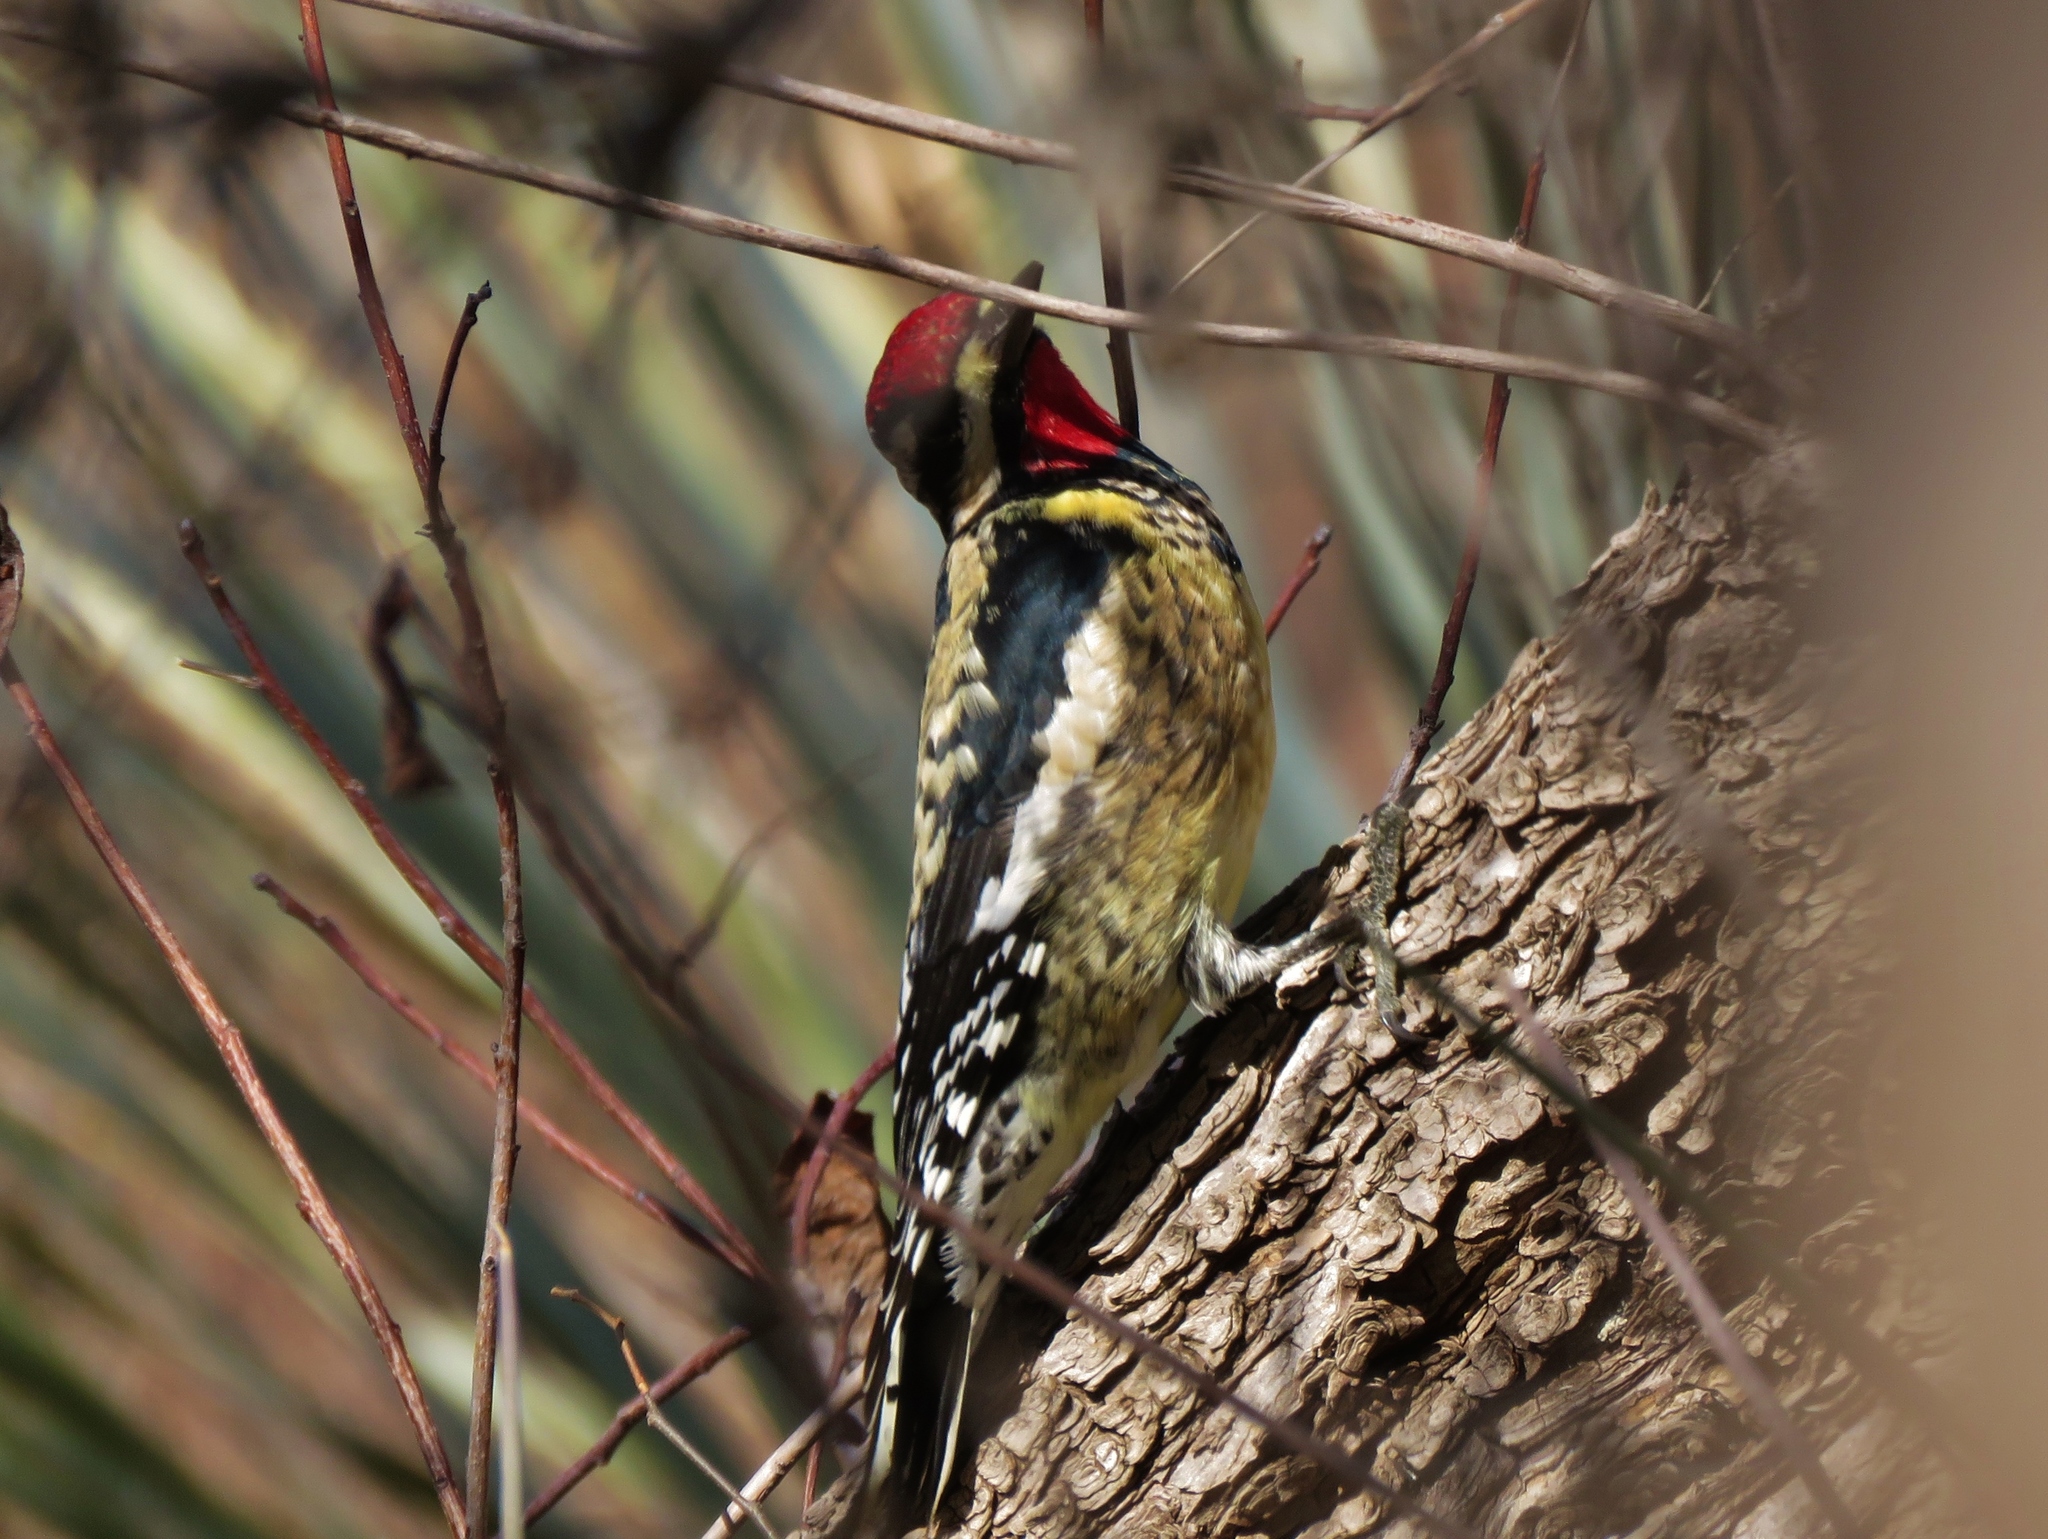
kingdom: Animalia
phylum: Chordata
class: Aves
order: Piciformes
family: Picidae
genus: Sphyrapicus
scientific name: Sphyrapicus varius
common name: Yellow-bellied sapsucker
